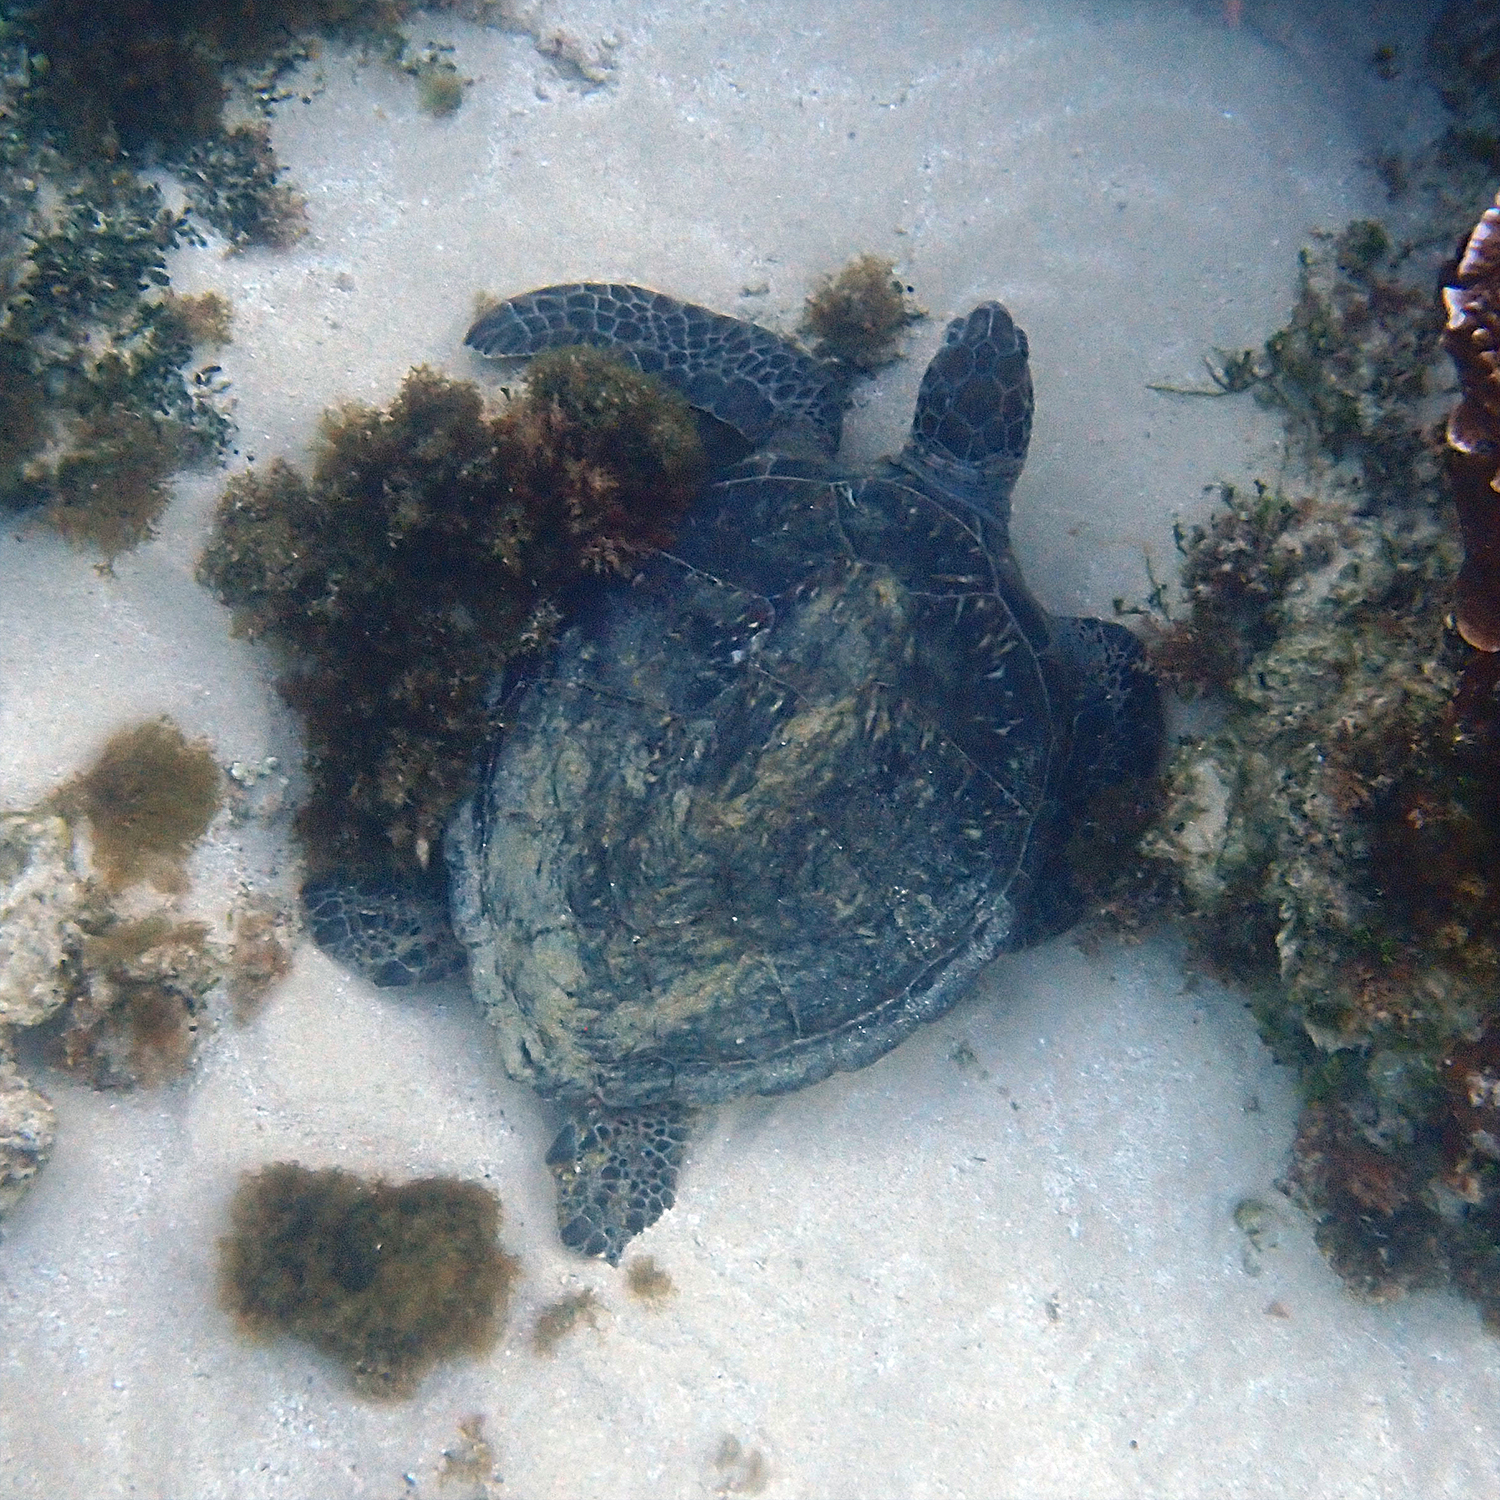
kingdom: Animalia
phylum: Chordata
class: Testudines
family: Cheloniidae
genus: Chelonia
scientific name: Chelonia mydas
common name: Green turtle
